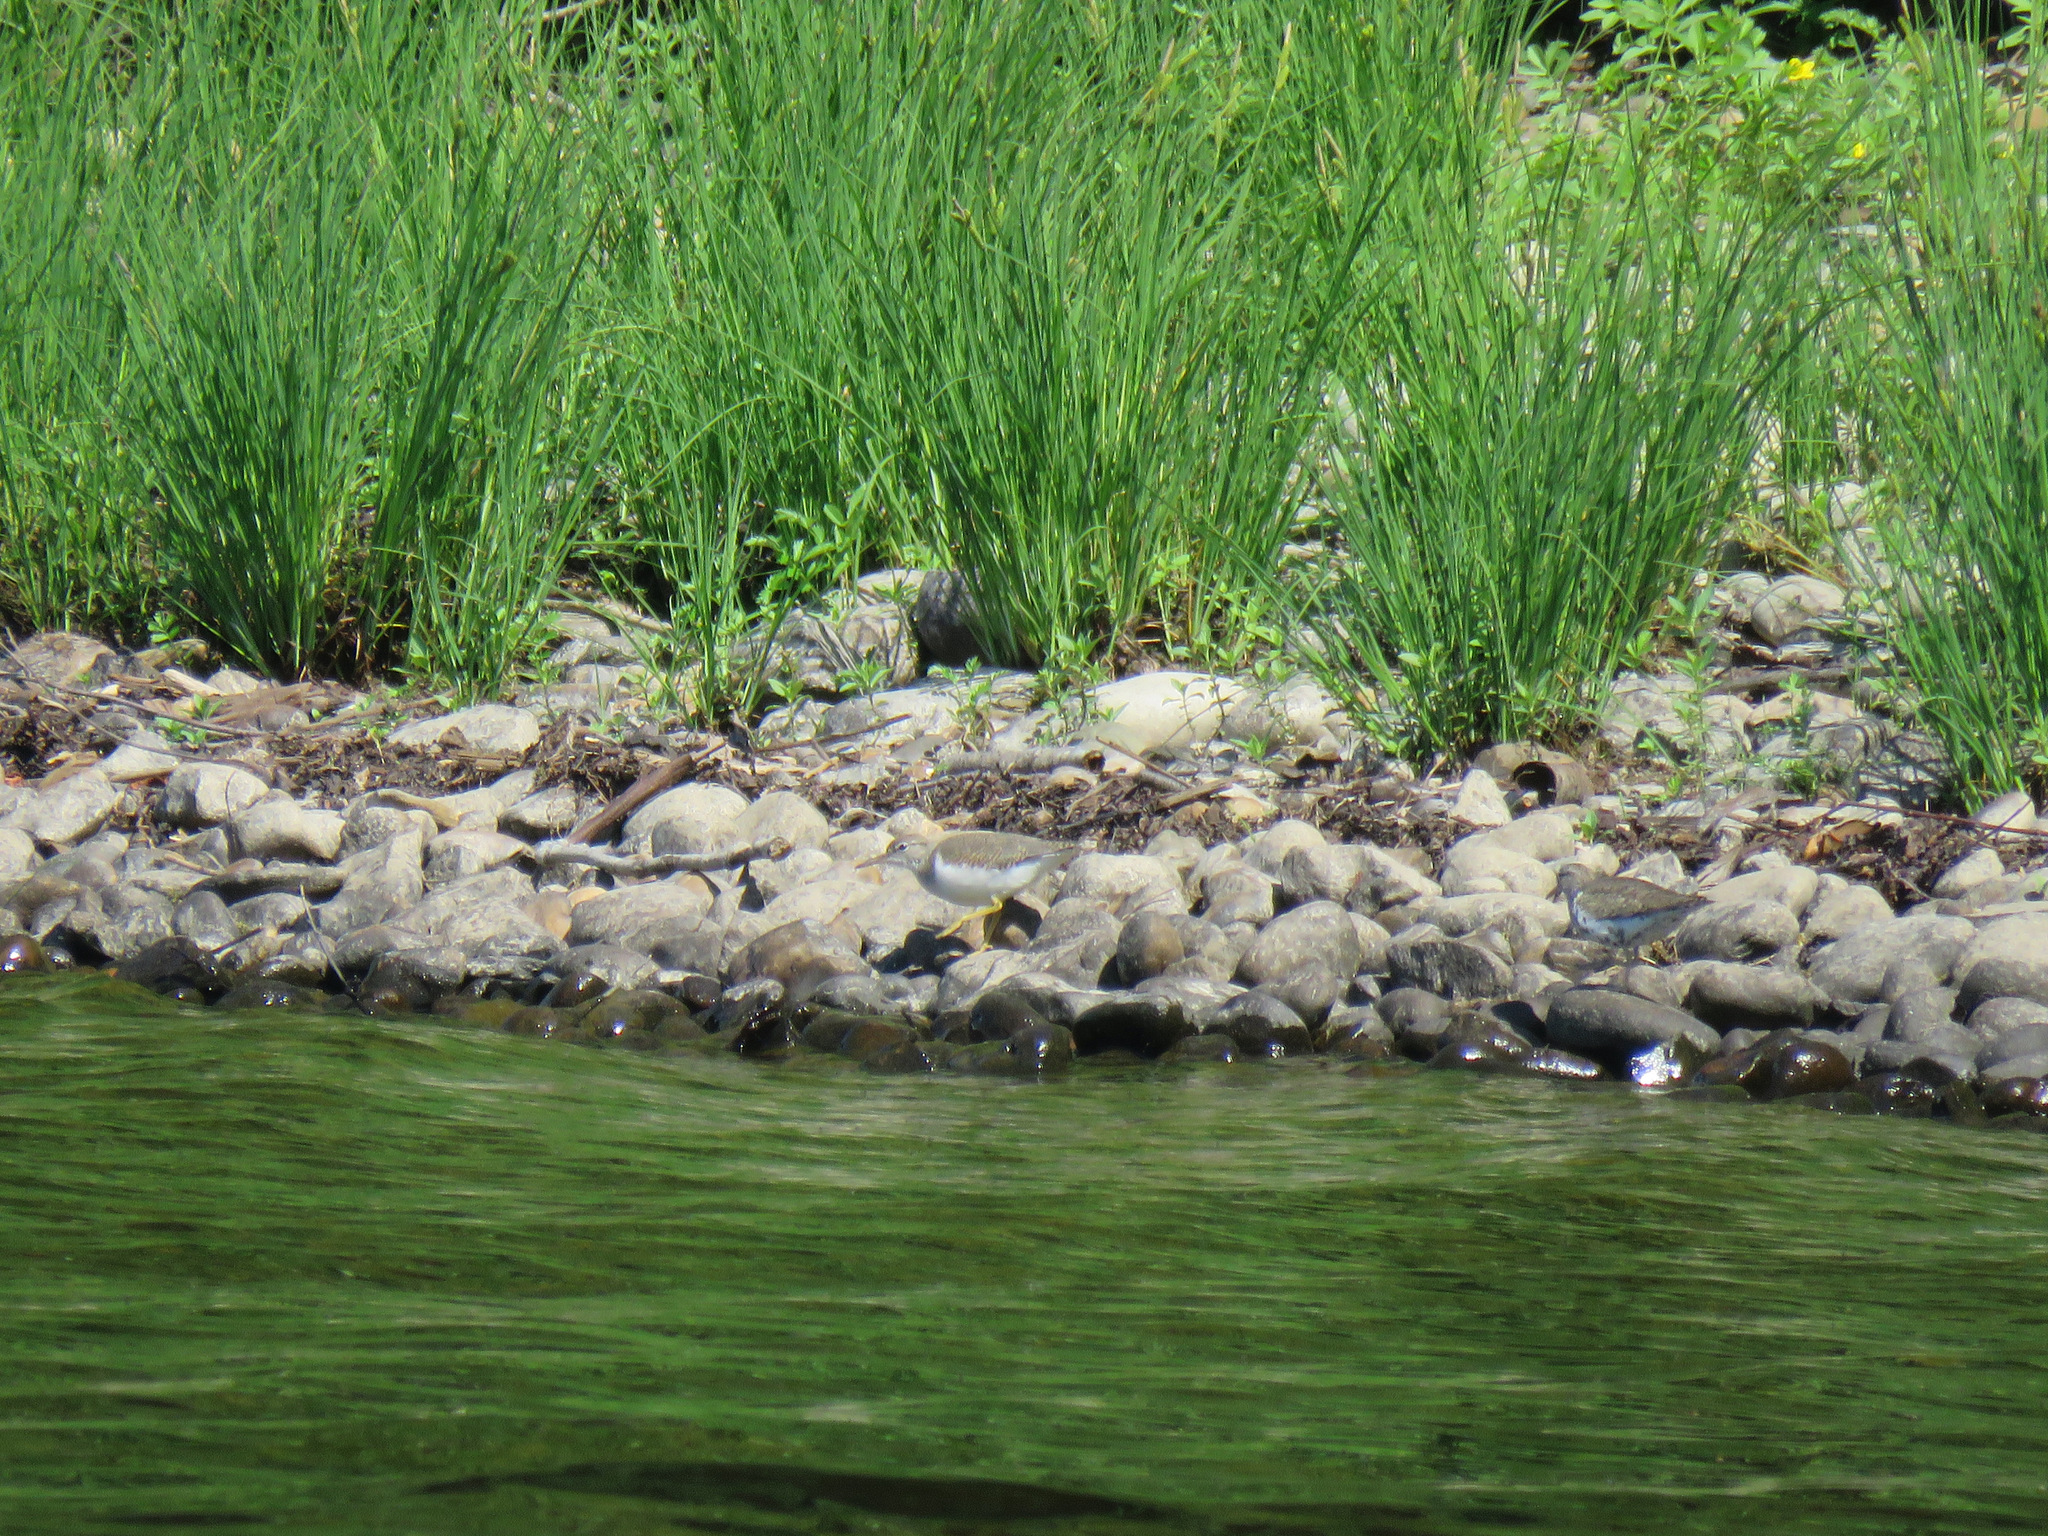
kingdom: Animalia
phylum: Chordata
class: Aves
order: Charadriiformes
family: Scolopacidae
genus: Actitis
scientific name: Actitis macularius
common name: Spotted sandpiper
